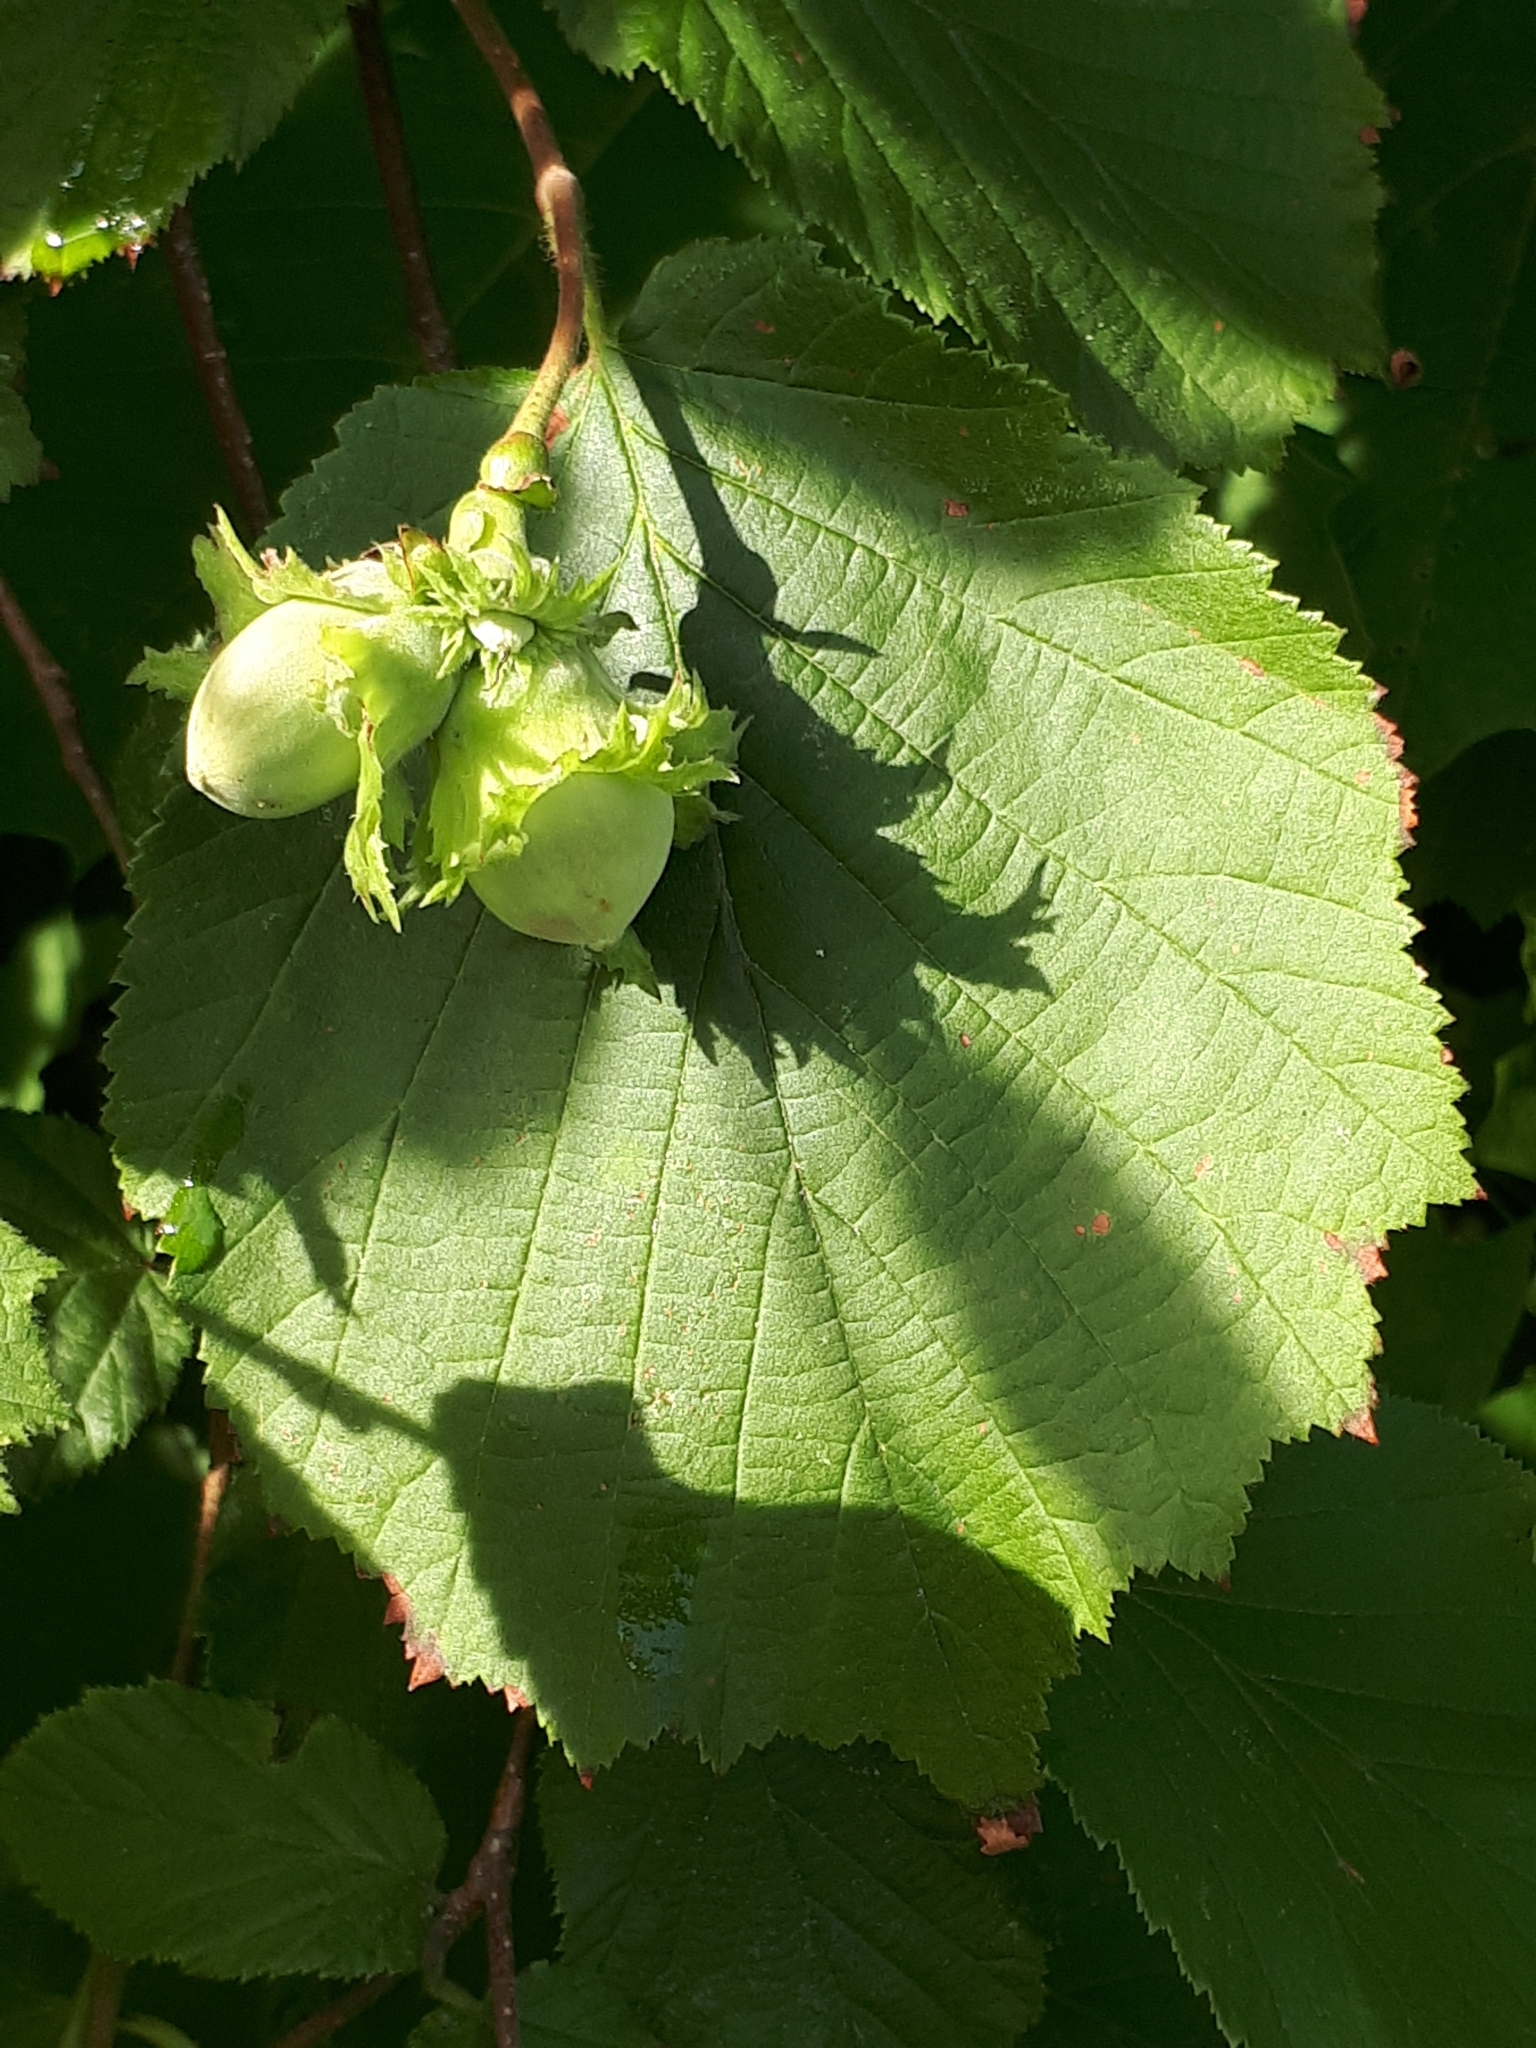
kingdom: Plantae
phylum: Tracheophyta
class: Magnoliopsida
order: Fagales
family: Betulaceae
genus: Corylus
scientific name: Corylus avellana
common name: European hazel
